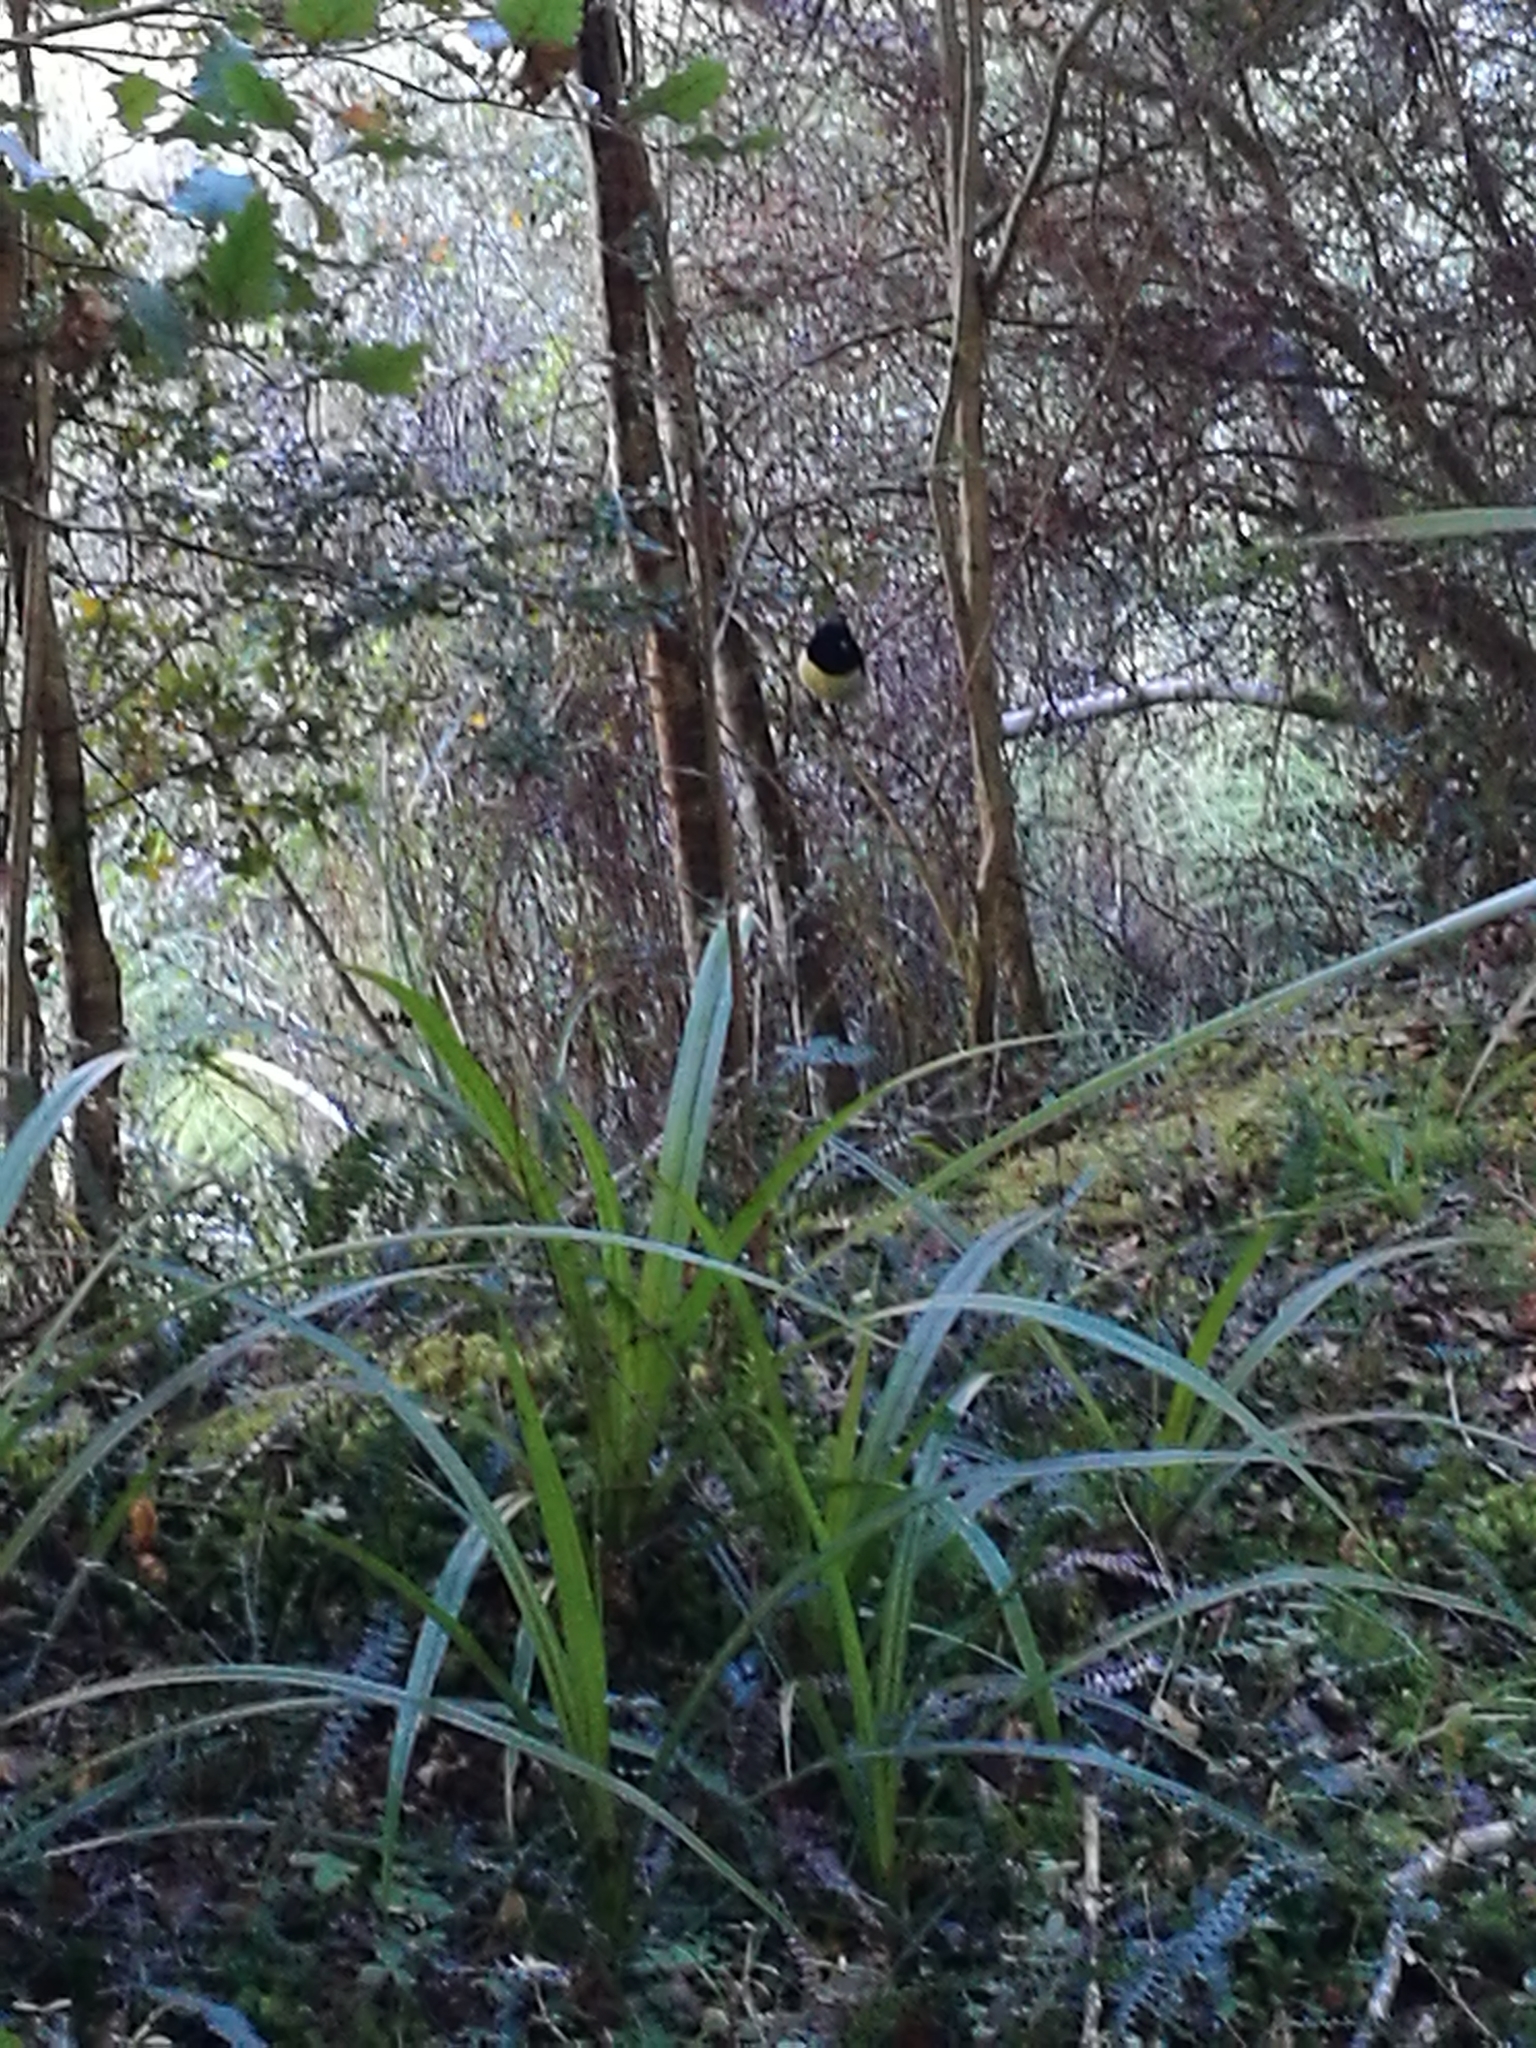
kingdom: Plantae
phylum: Tracheophyta
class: Liliopsida
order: Asparagales
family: Asteliaceae
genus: Astelia
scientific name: Astelia fragrans
